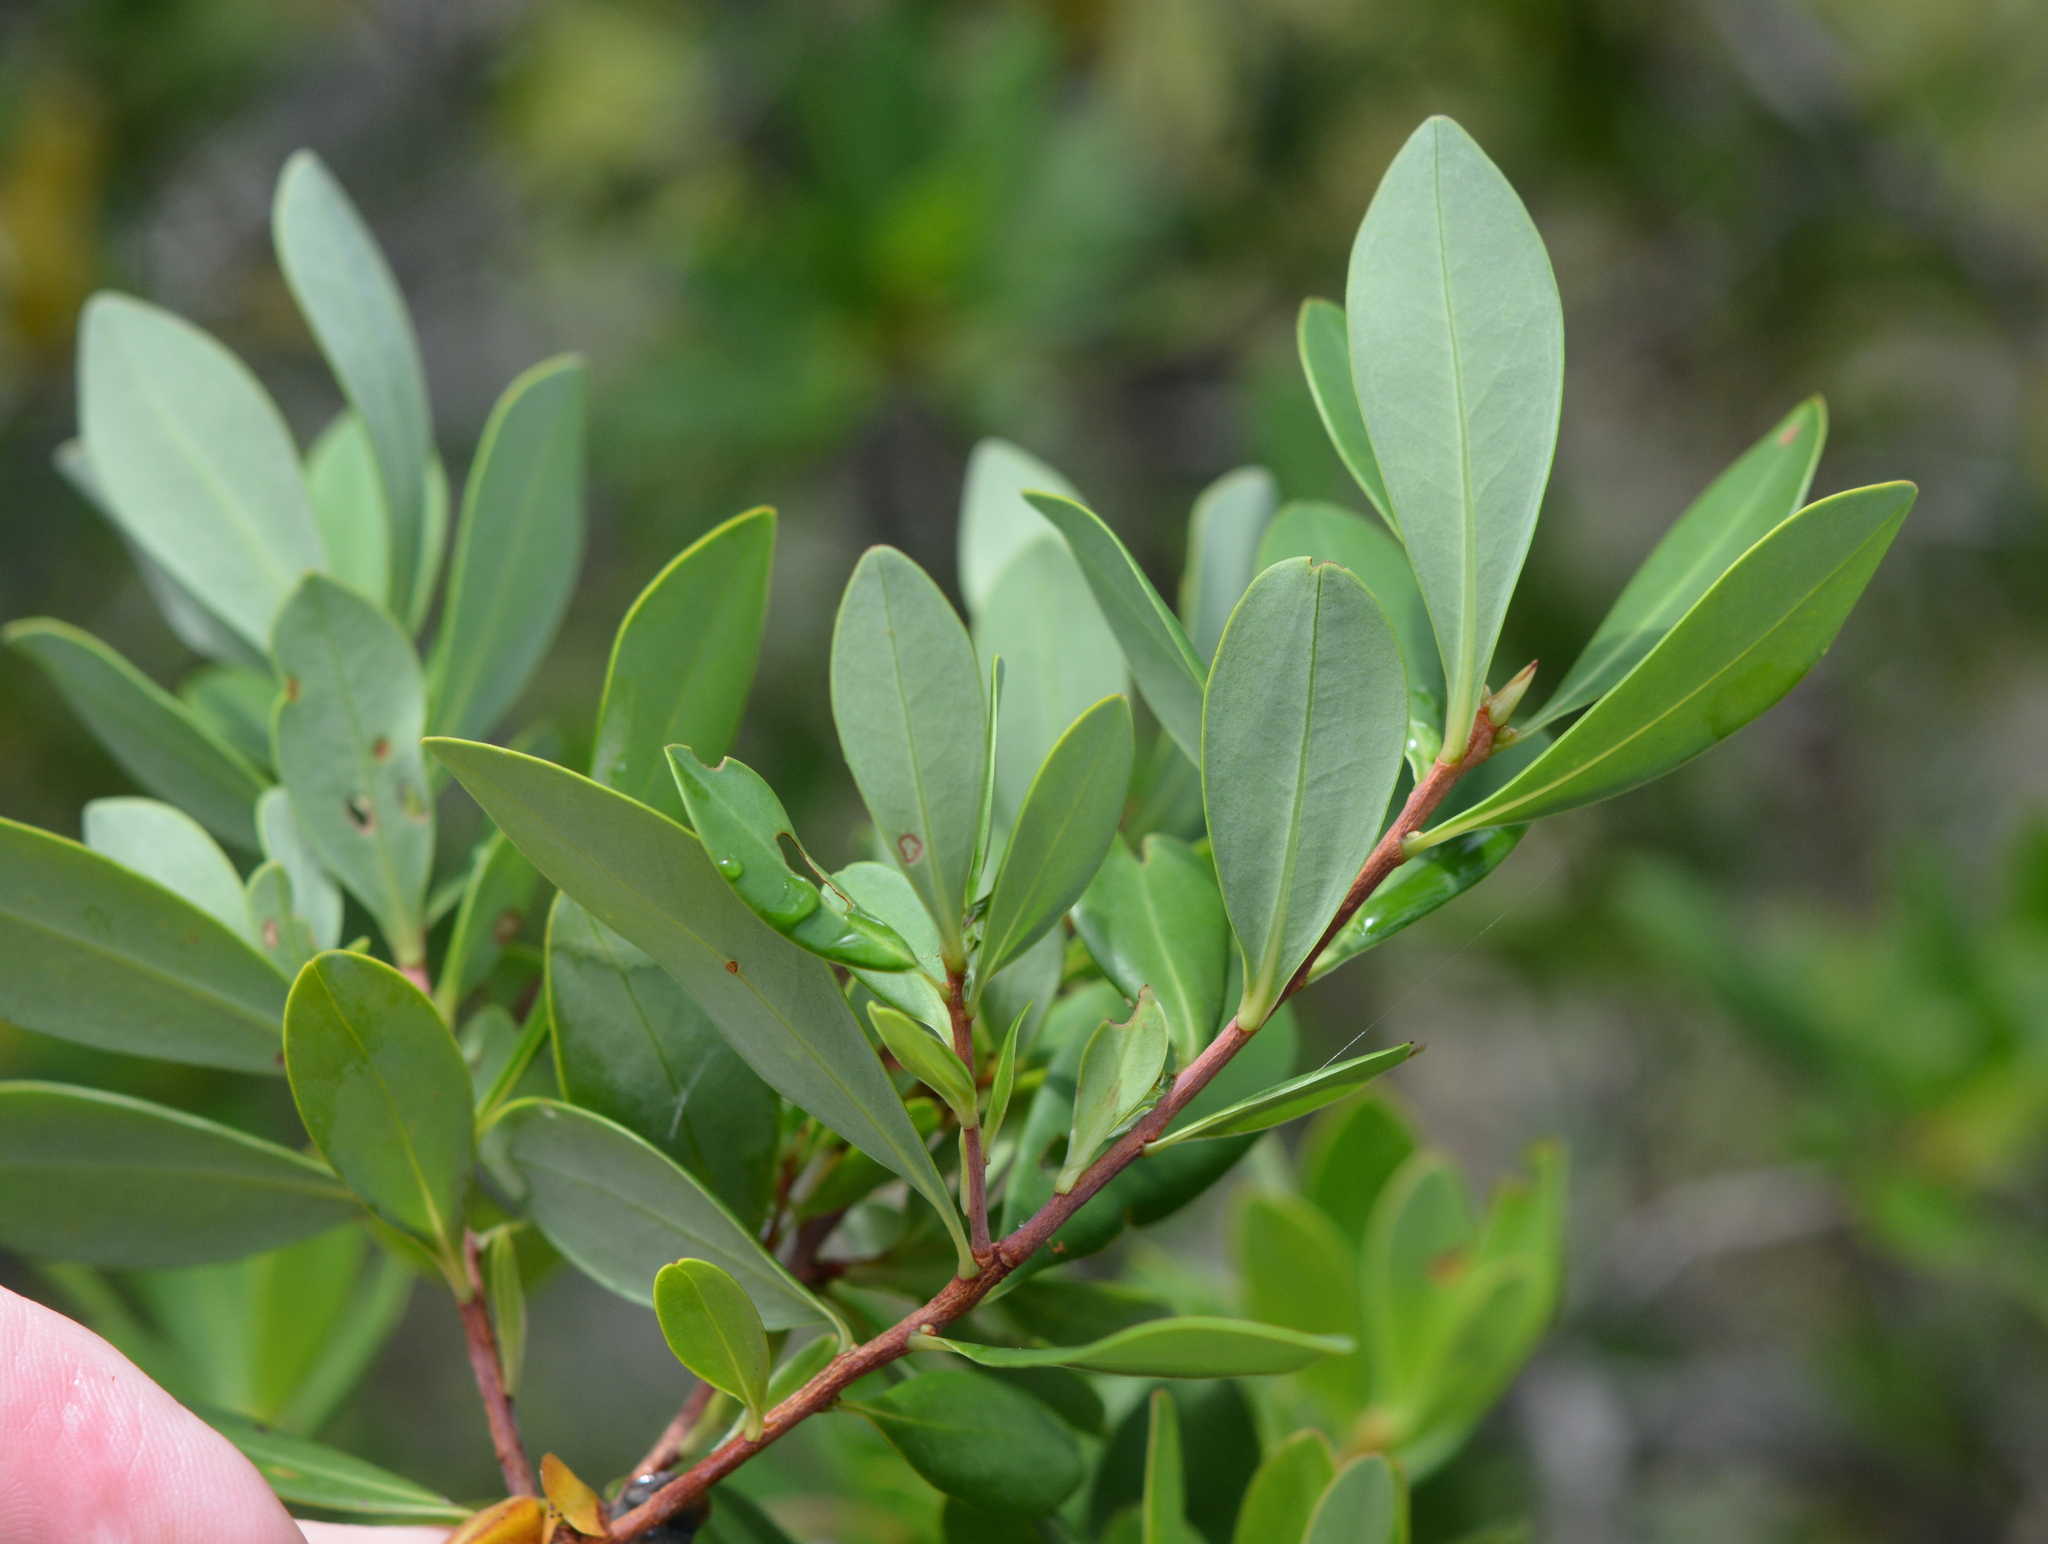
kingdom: Plantae
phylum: Tracheophyta
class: Magnoliopsida
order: Ericales
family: Cyrillaceae
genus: Cliftonia
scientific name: Cliftonia monophylla
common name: Titi
